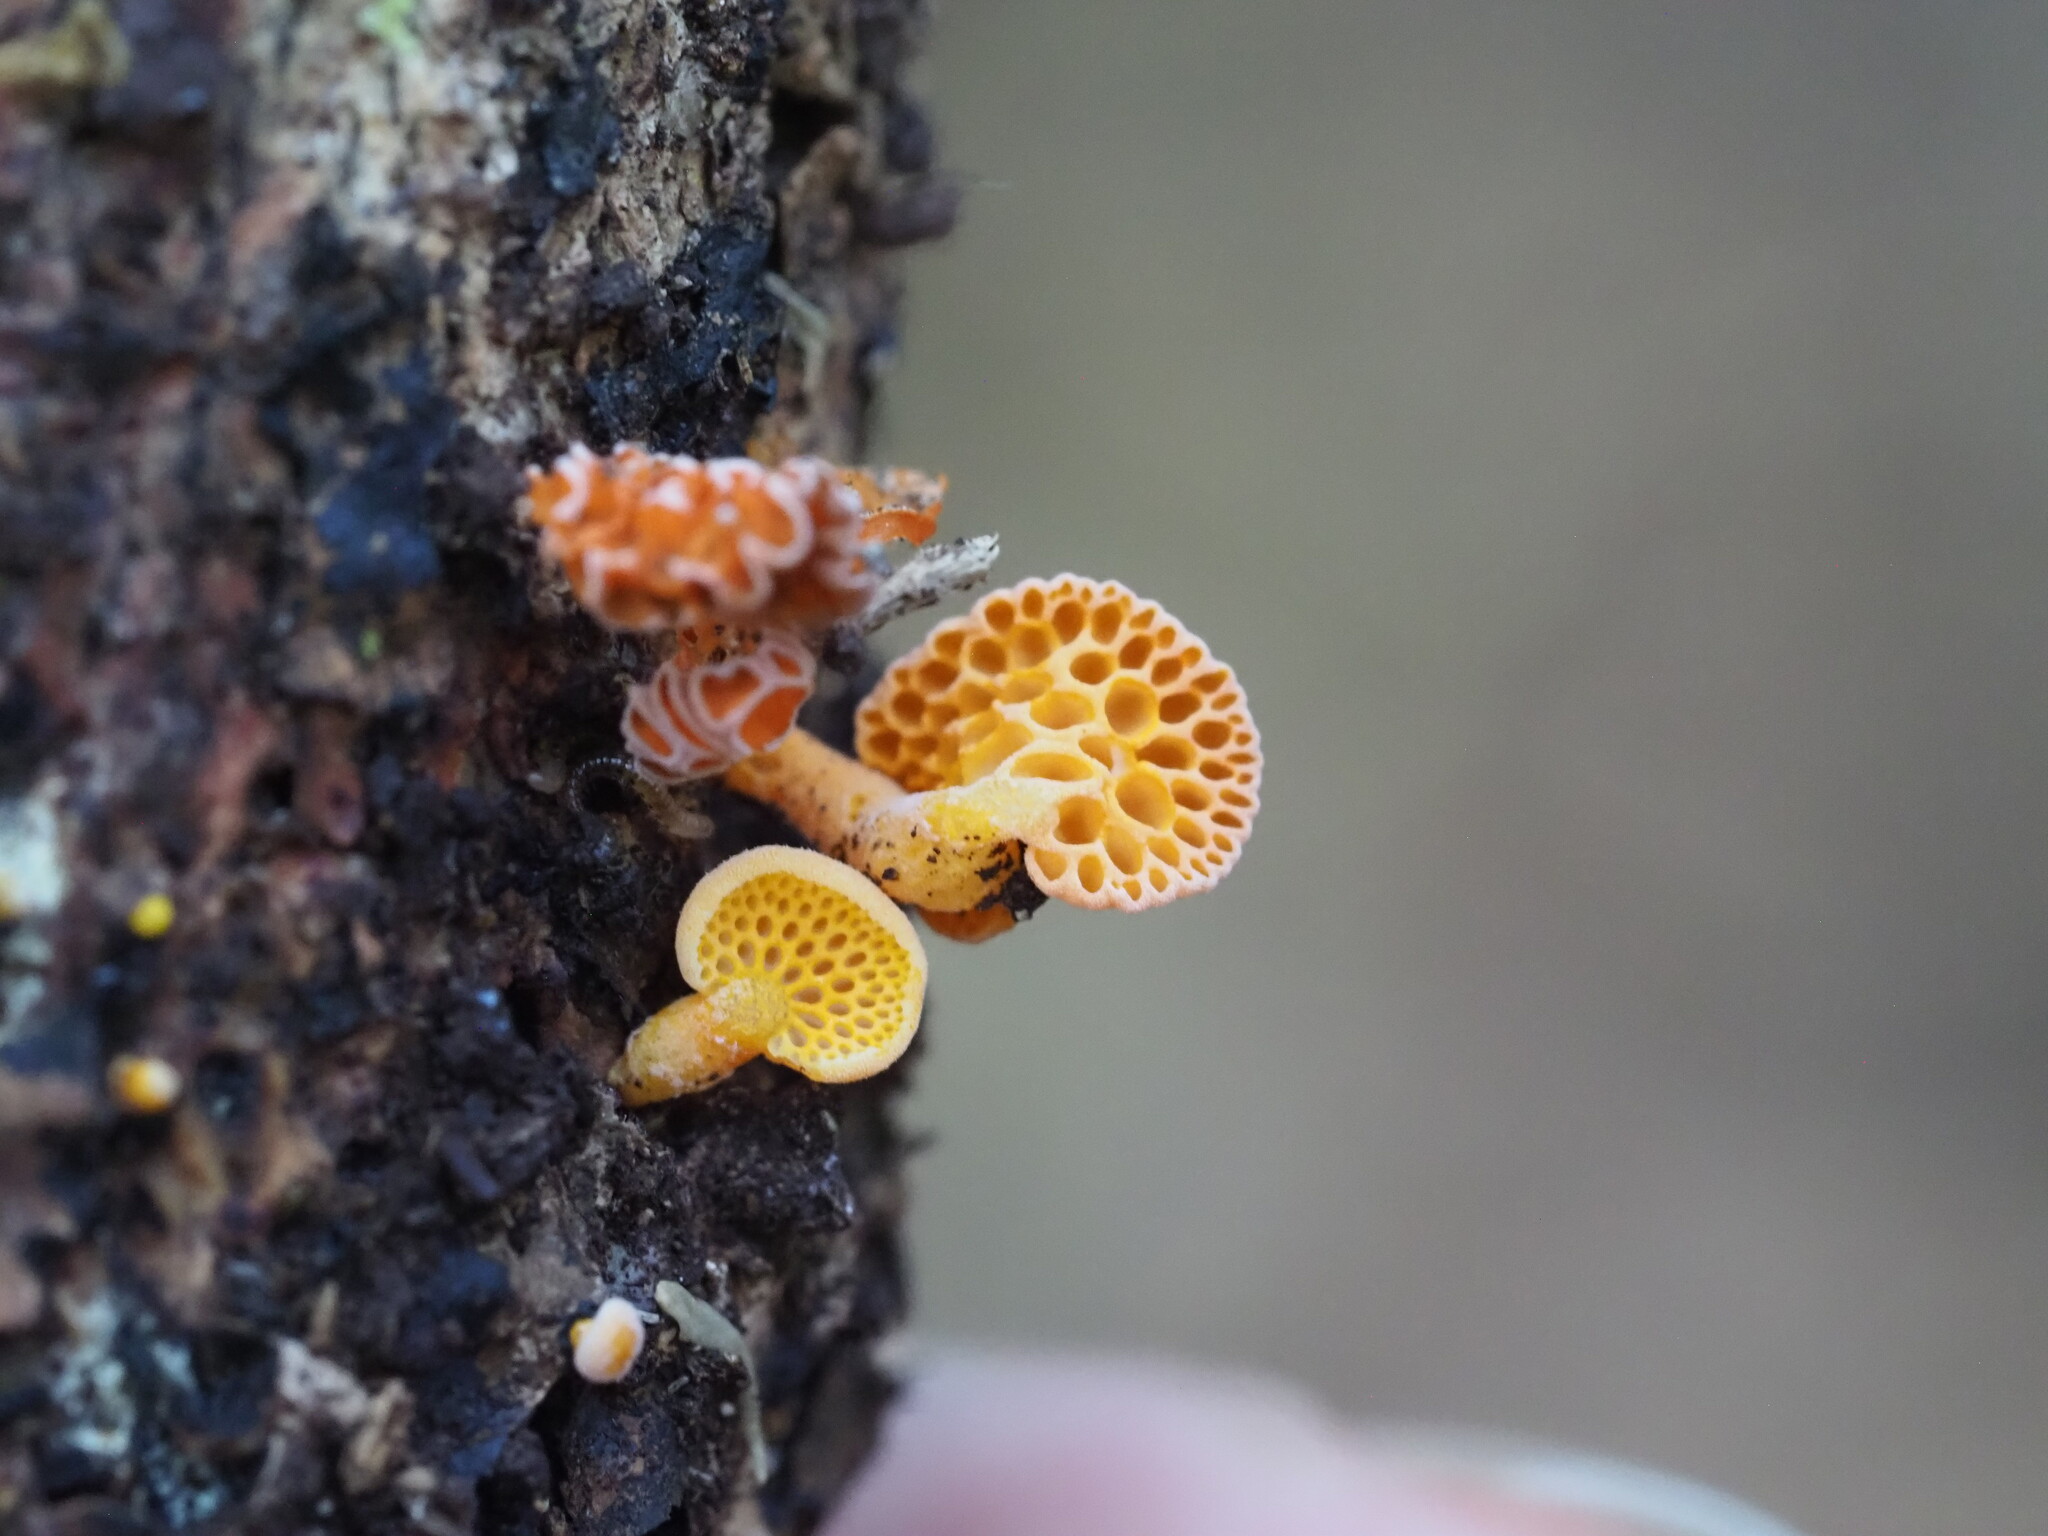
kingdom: Fungi
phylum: Basidiomycota
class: Agaricomycetes
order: Agaricales
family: Mycenaceae
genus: Favolaschia
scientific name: Favolaschia claudopus
